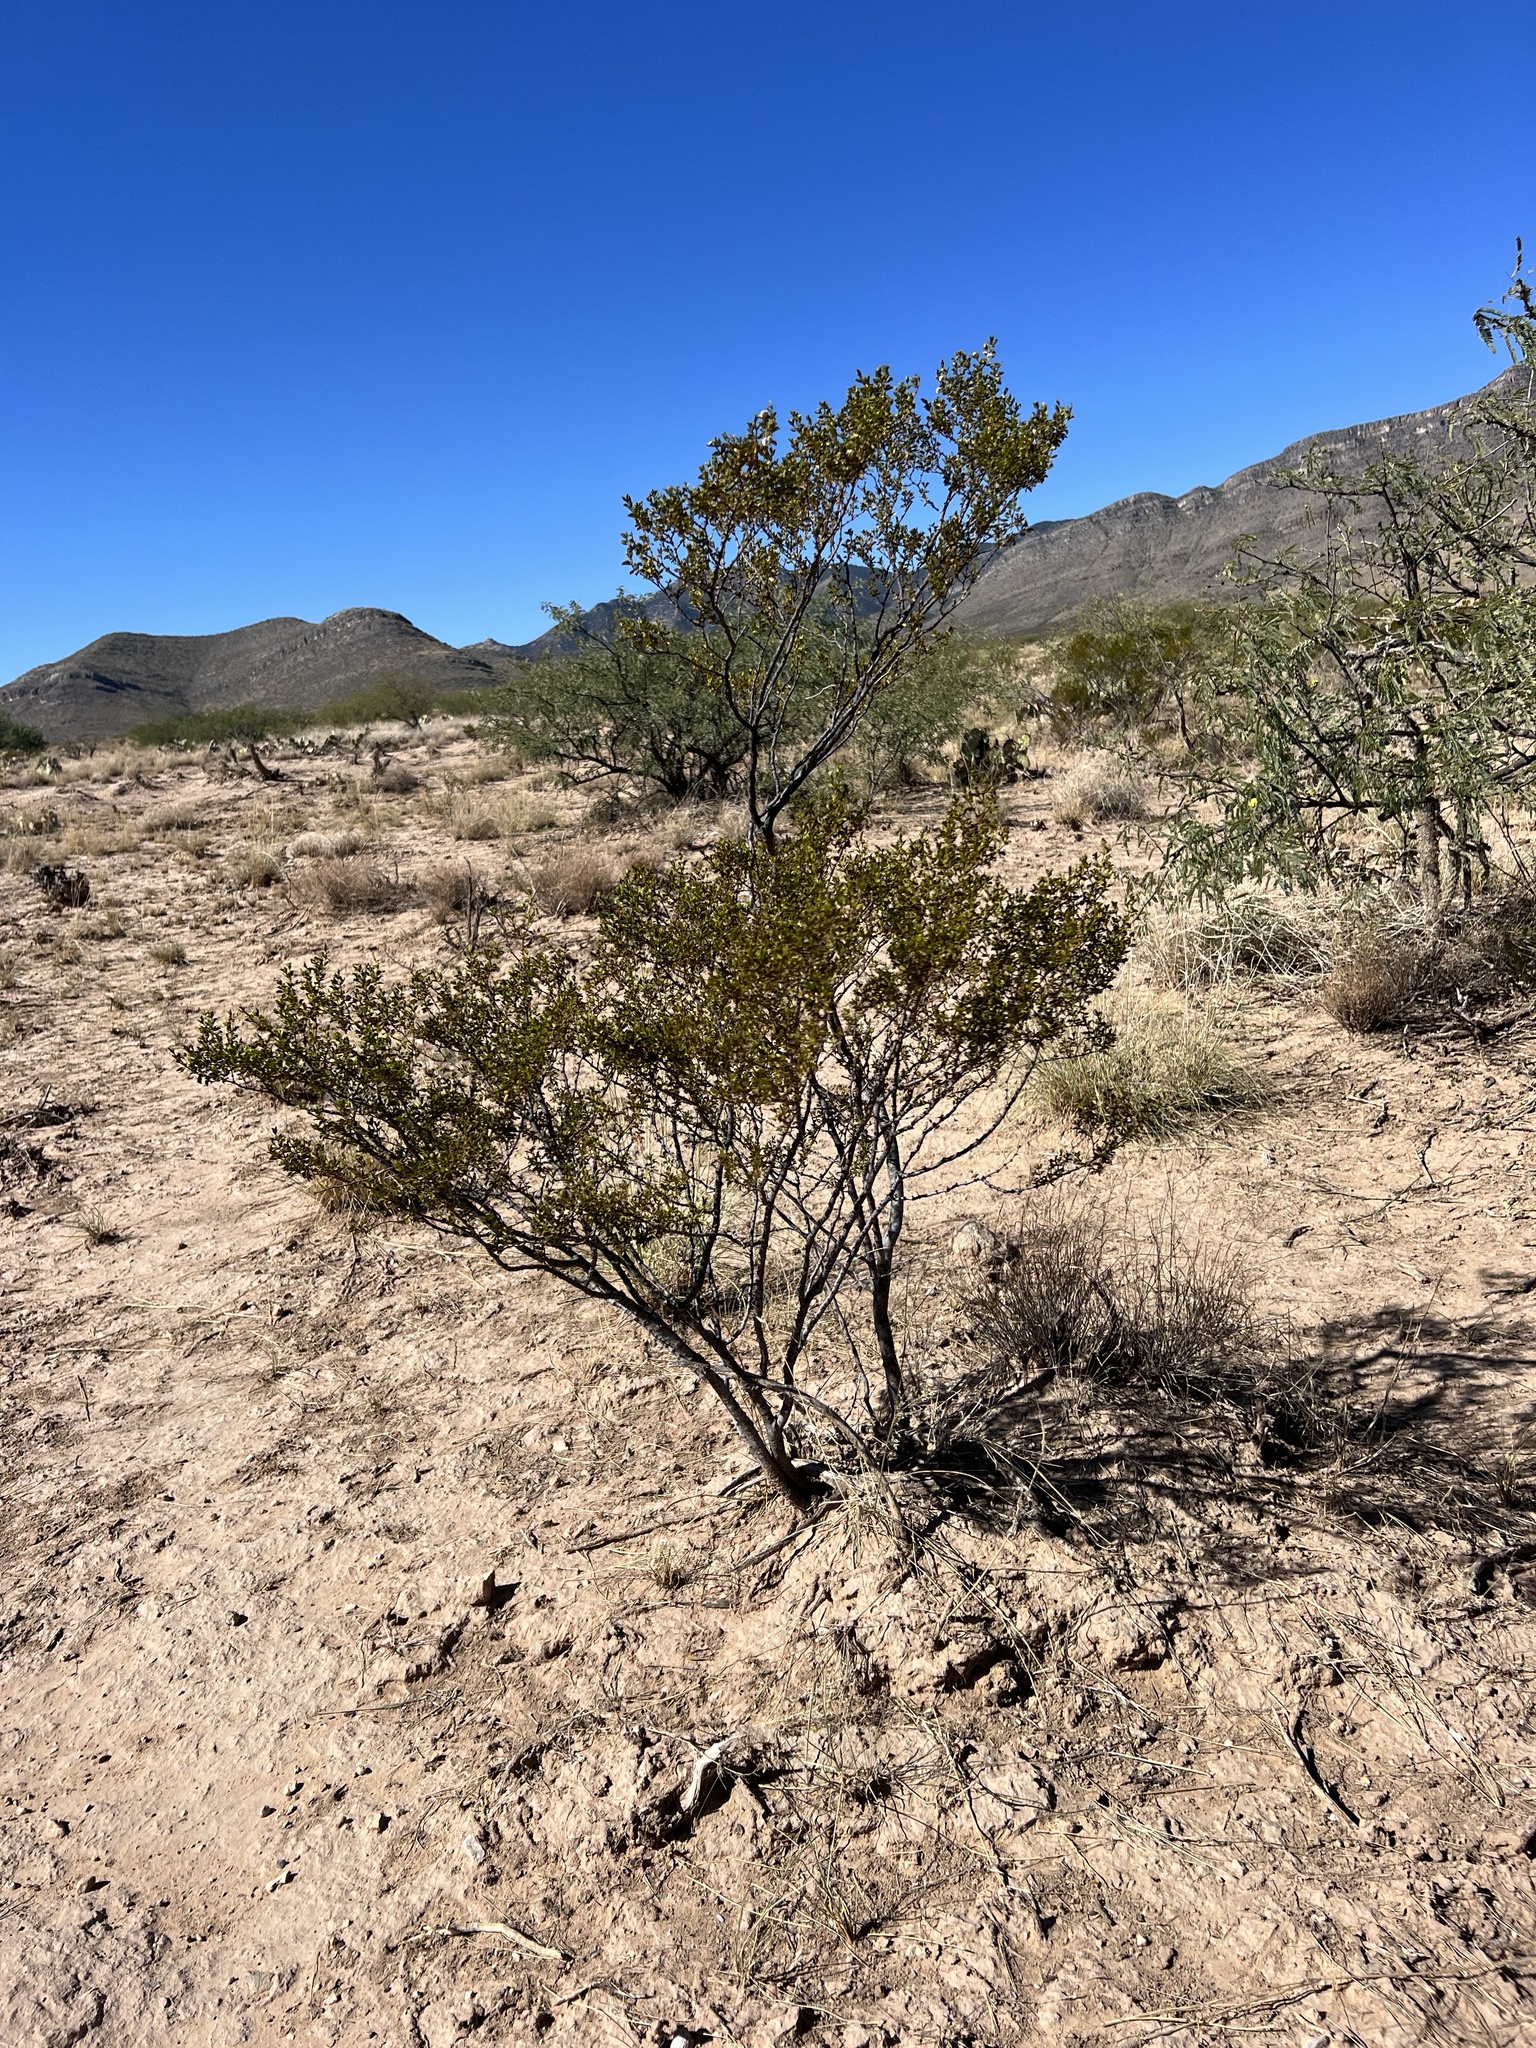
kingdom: Plantae
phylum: Tracheophyta
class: Magnoliopsida
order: Zygophyllales
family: Zygophyllaceae
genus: Larrea
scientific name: Larrea tridentata
